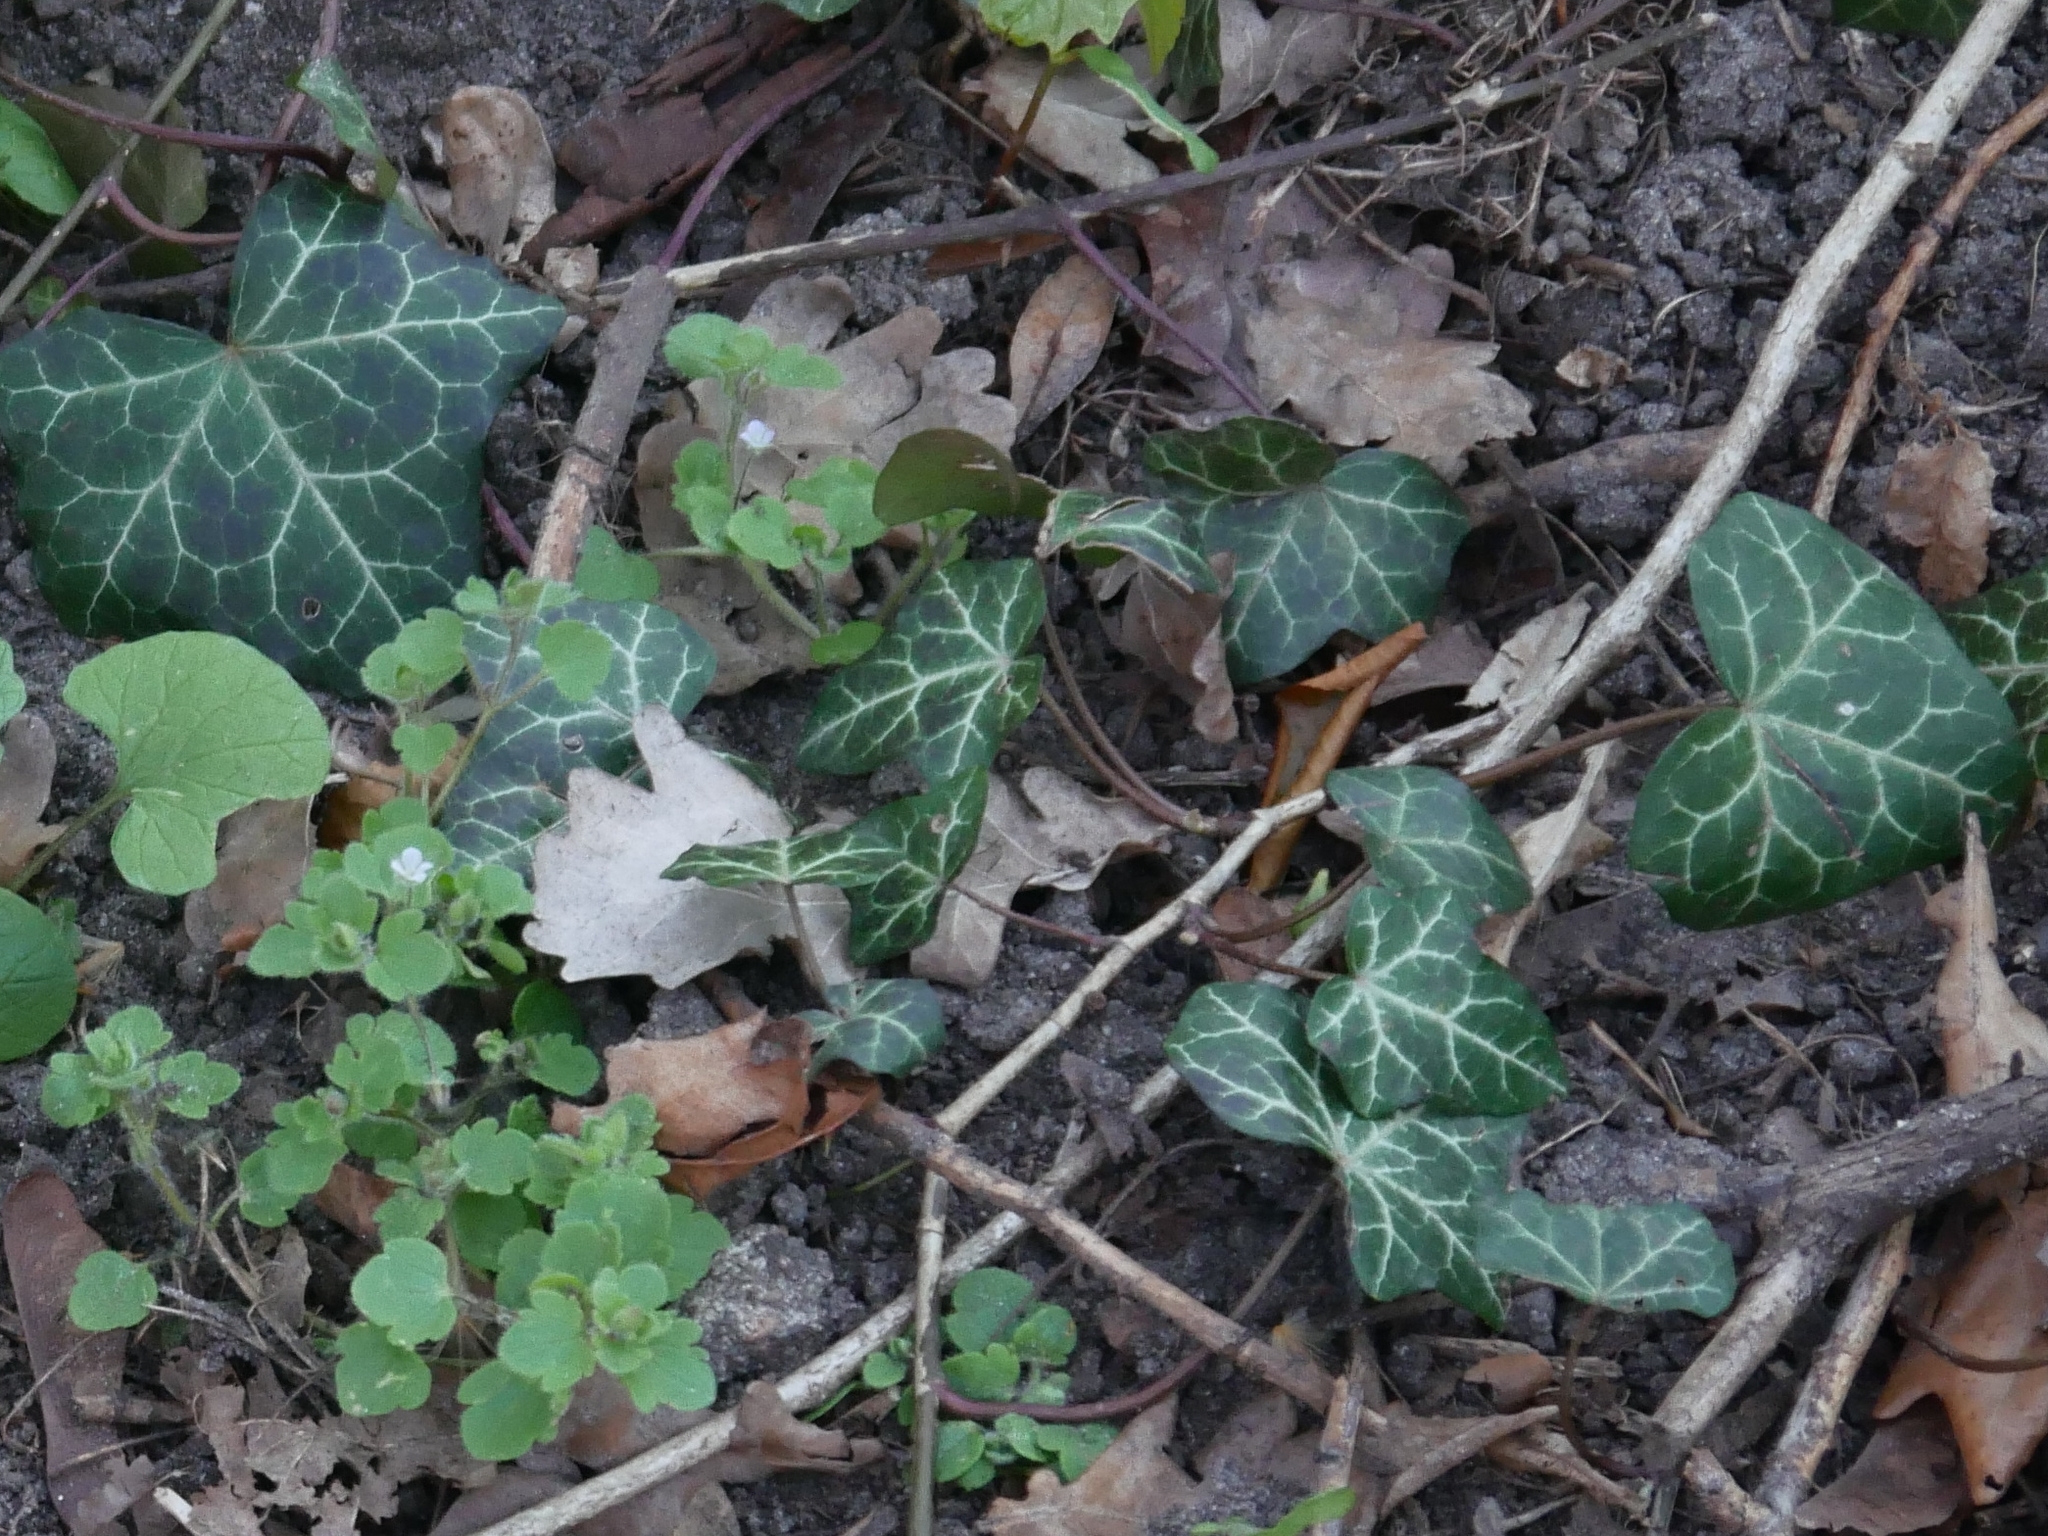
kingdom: Plantae
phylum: Tracheophyta
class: Magnoliopsida
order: Apiales
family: Araliaceae
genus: Hedera
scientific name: Hedera helix
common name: Ivy
